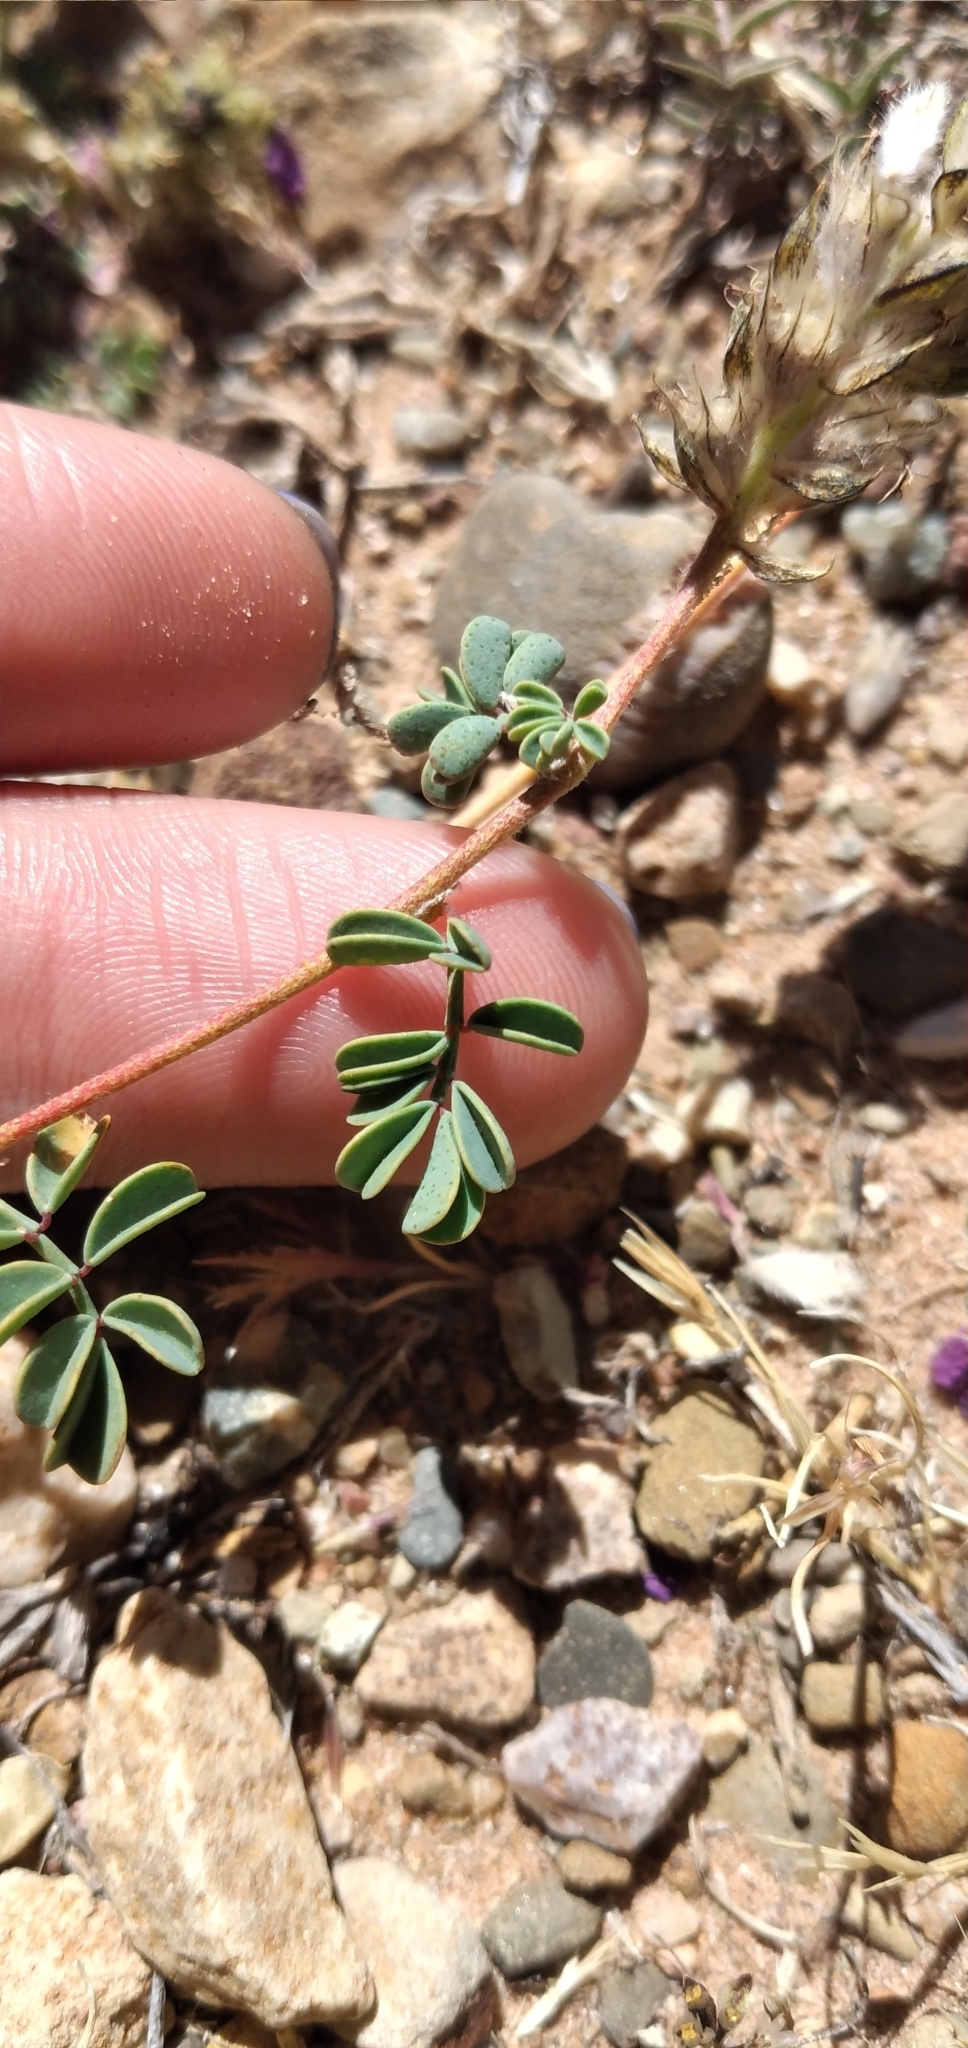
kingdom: Plantae
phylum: Tracheophyta
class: Magnoliopsida
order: Fabales
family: Fabaceae
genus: Dalea
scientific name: Dalea boliviana
